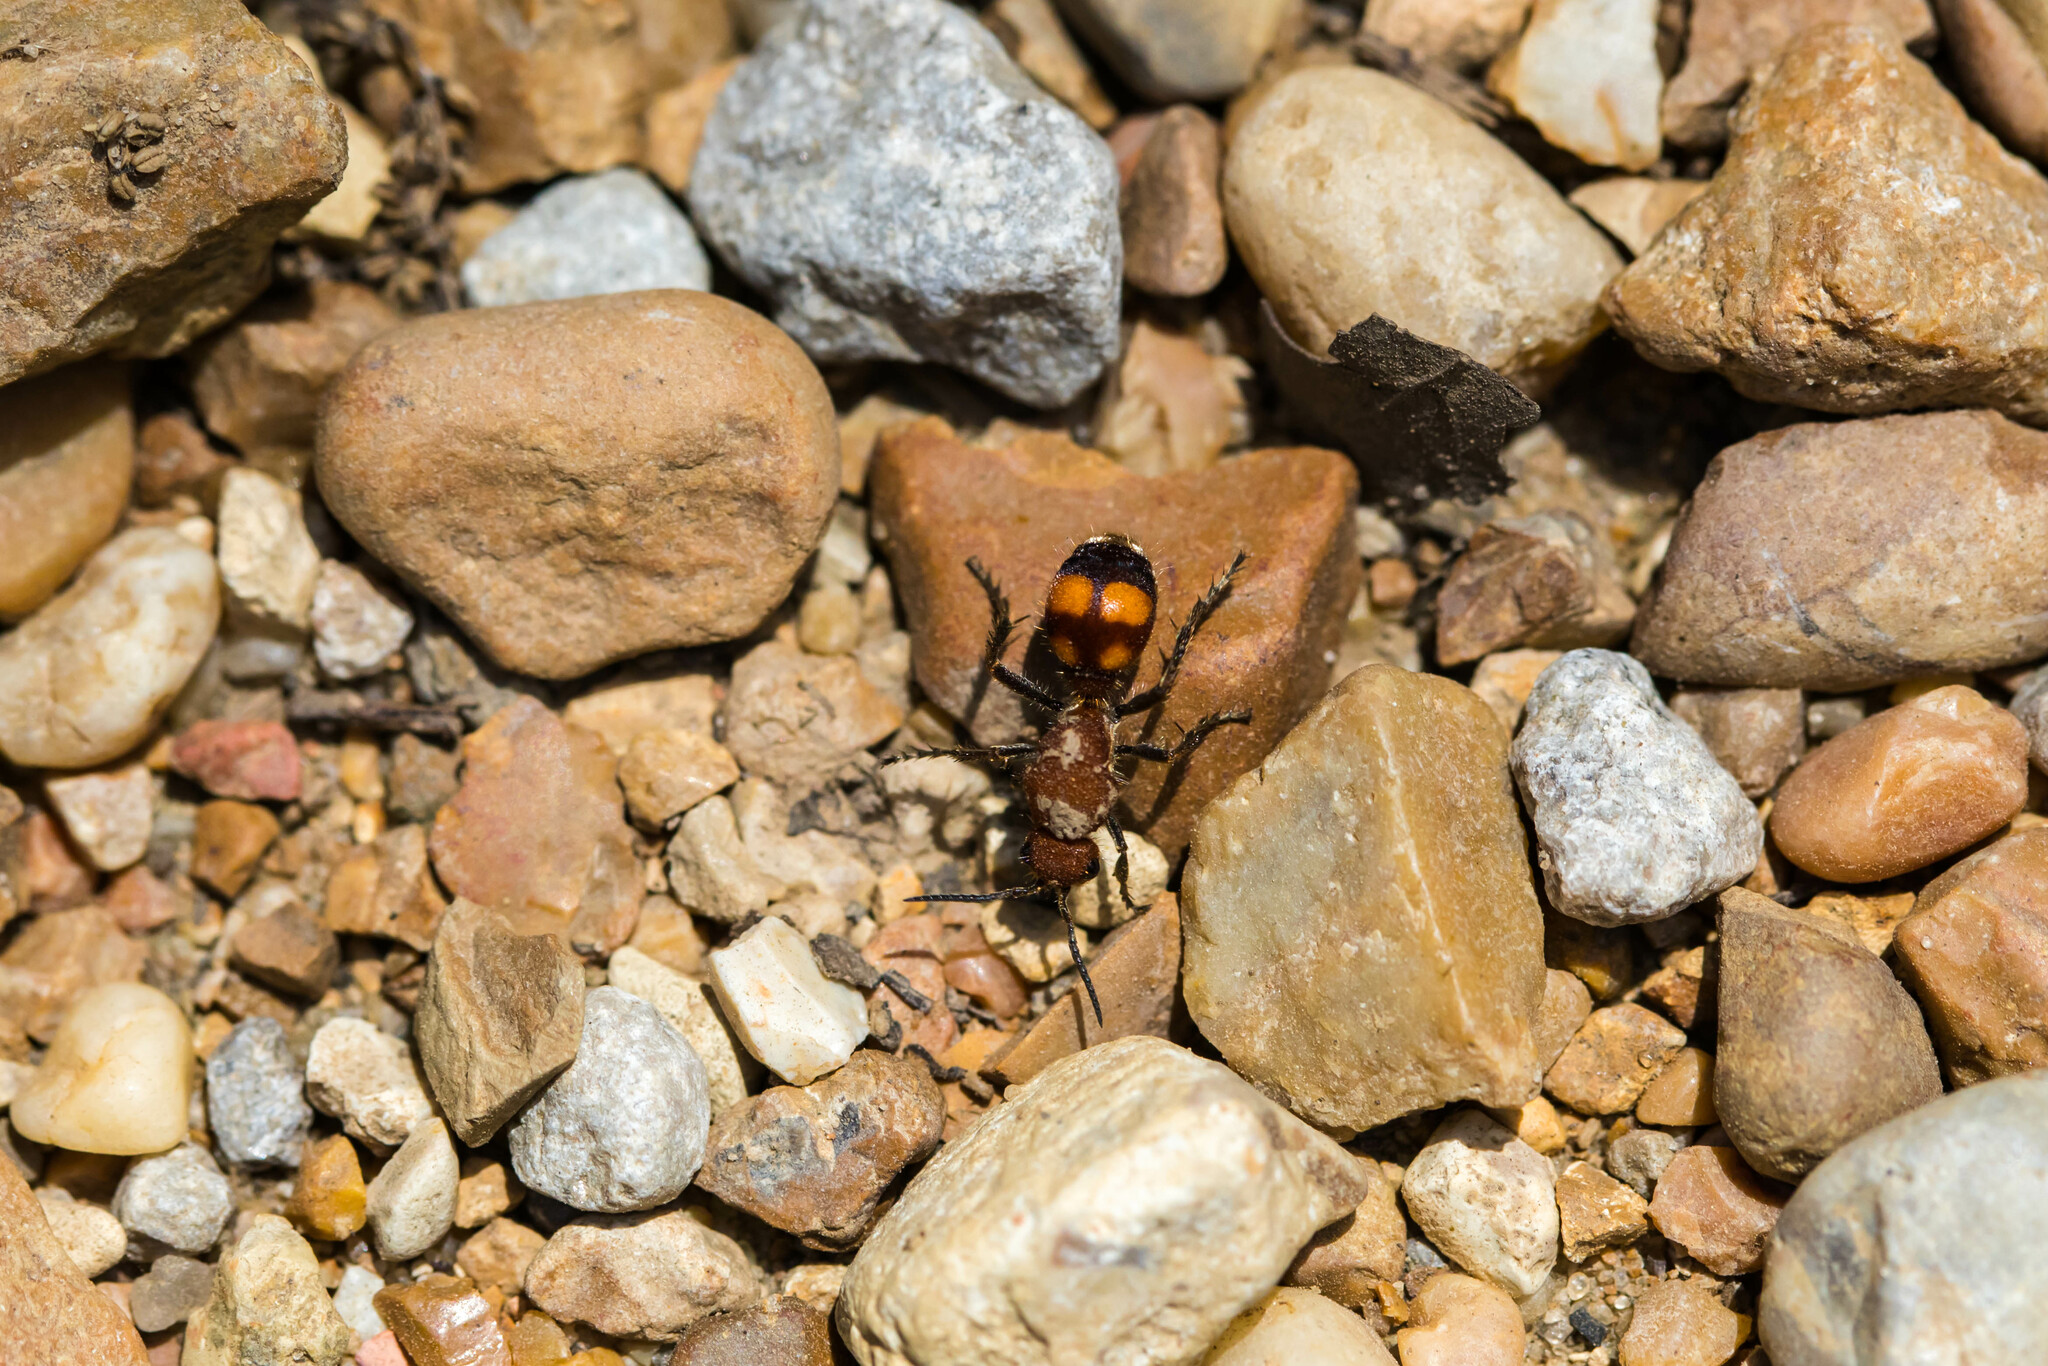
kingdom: Animalia
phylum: Arthropoda
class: Insecta
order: Hymenoptera
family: Mutillidae
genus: Dasymutilla
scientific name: Dasymutilla
